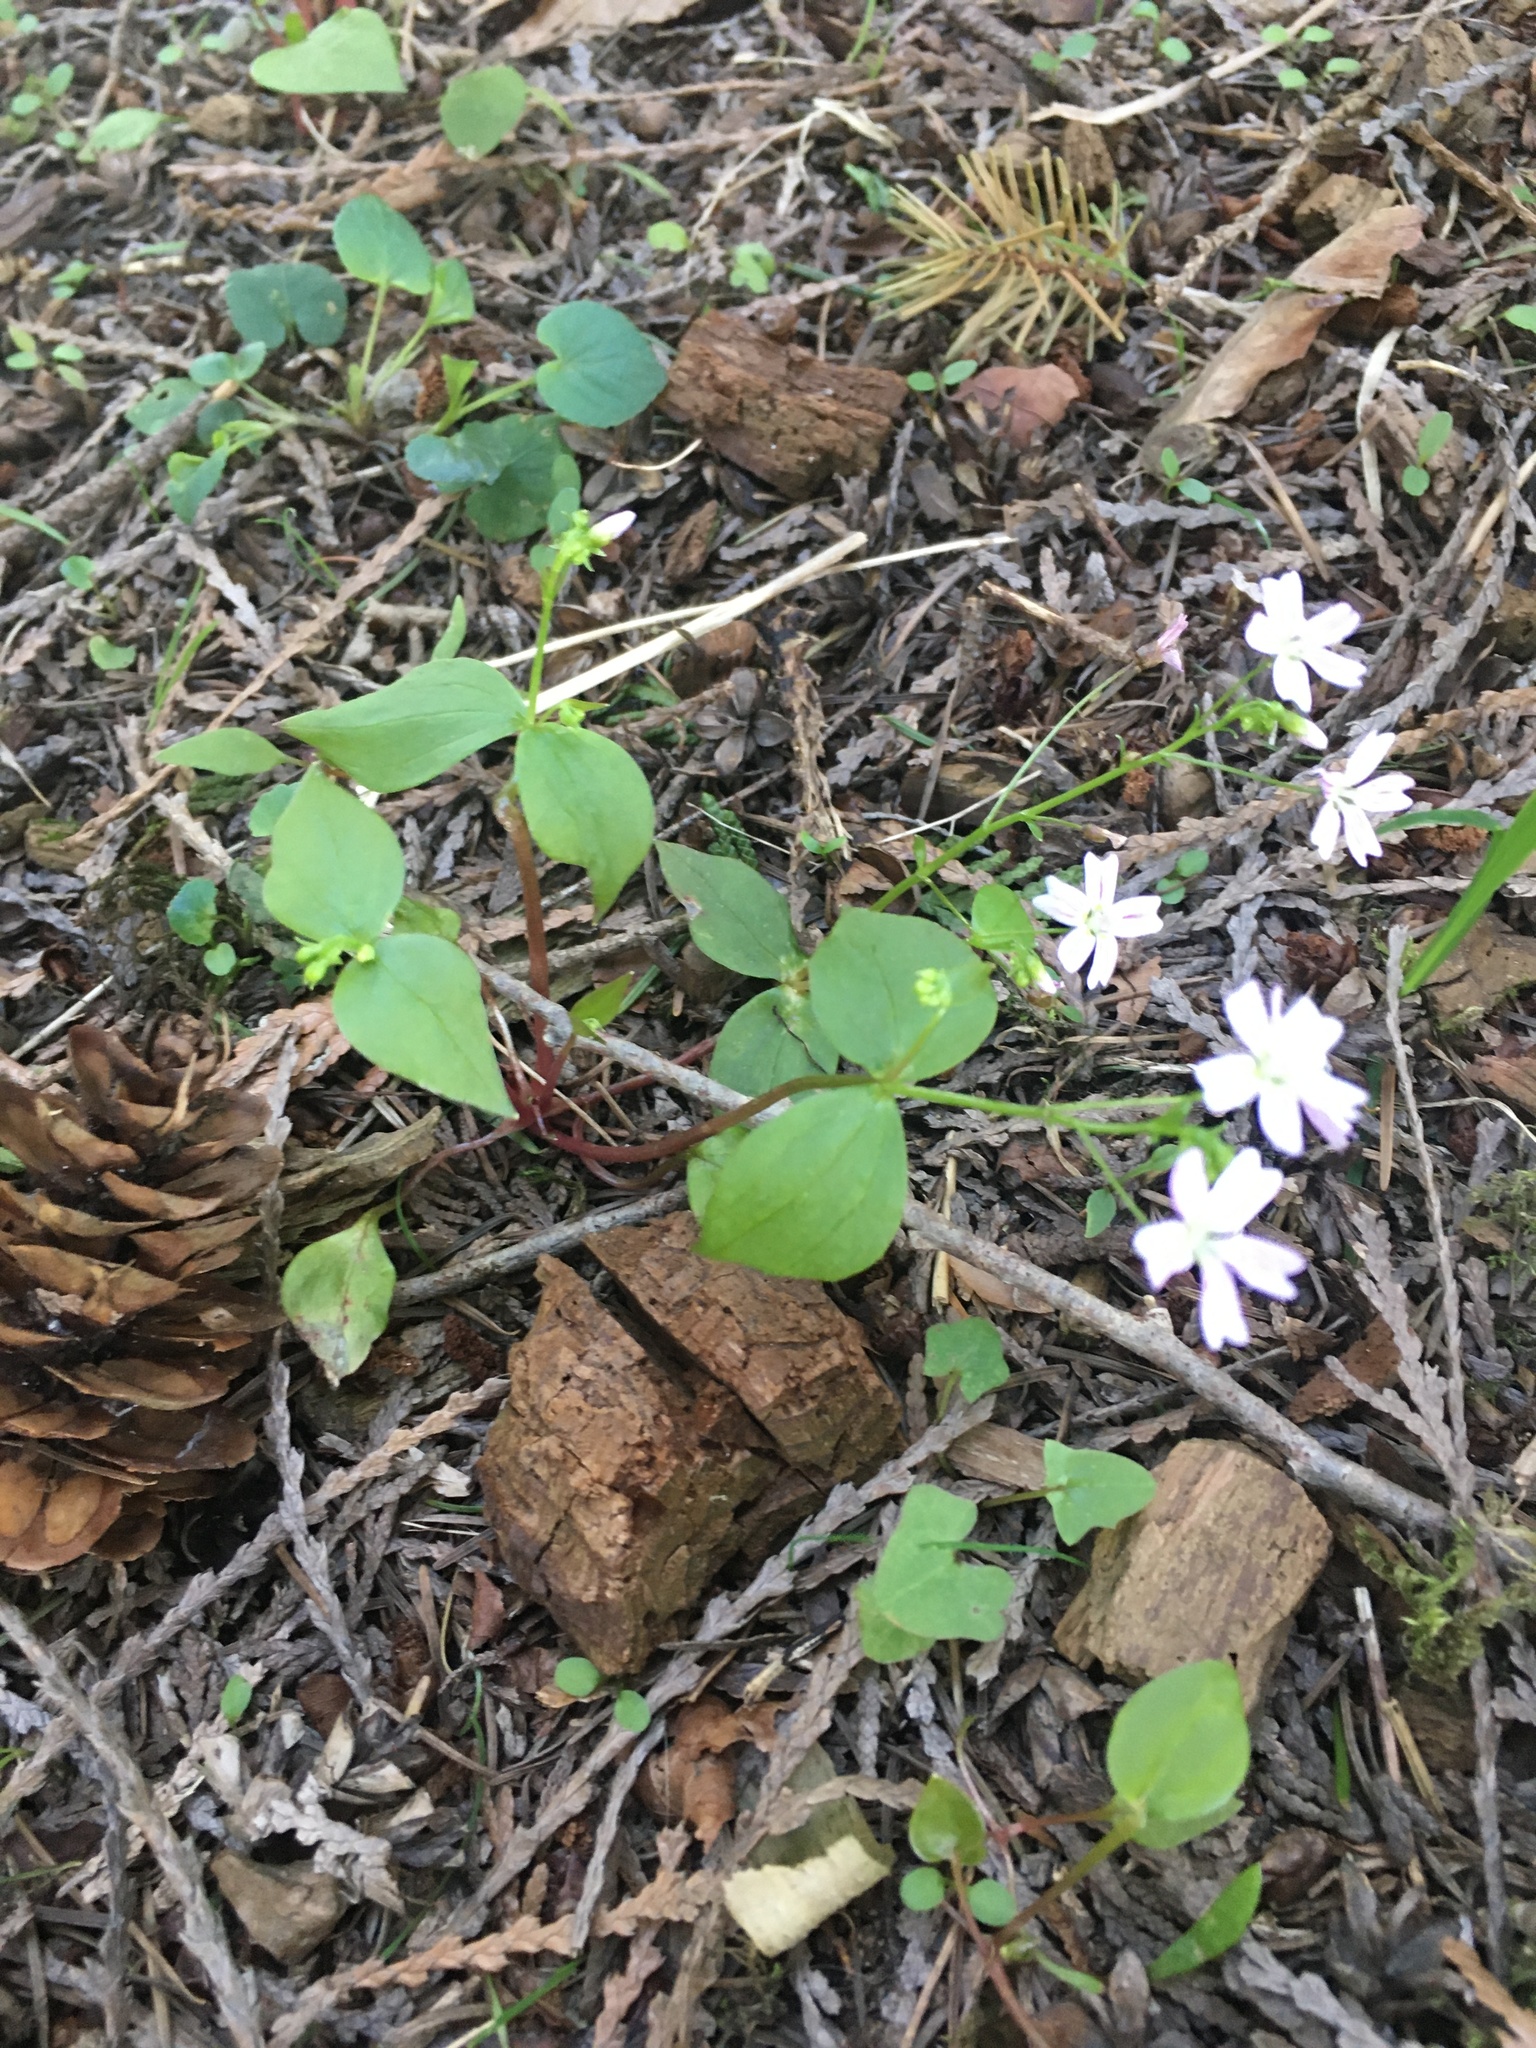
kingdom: Plantae
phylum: Tracheophyta
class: Magnoliopsida
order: Caryophyllales
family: Montiaceae
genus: Claytonia
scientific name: Claytonia sibirica
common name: Pink purslane
